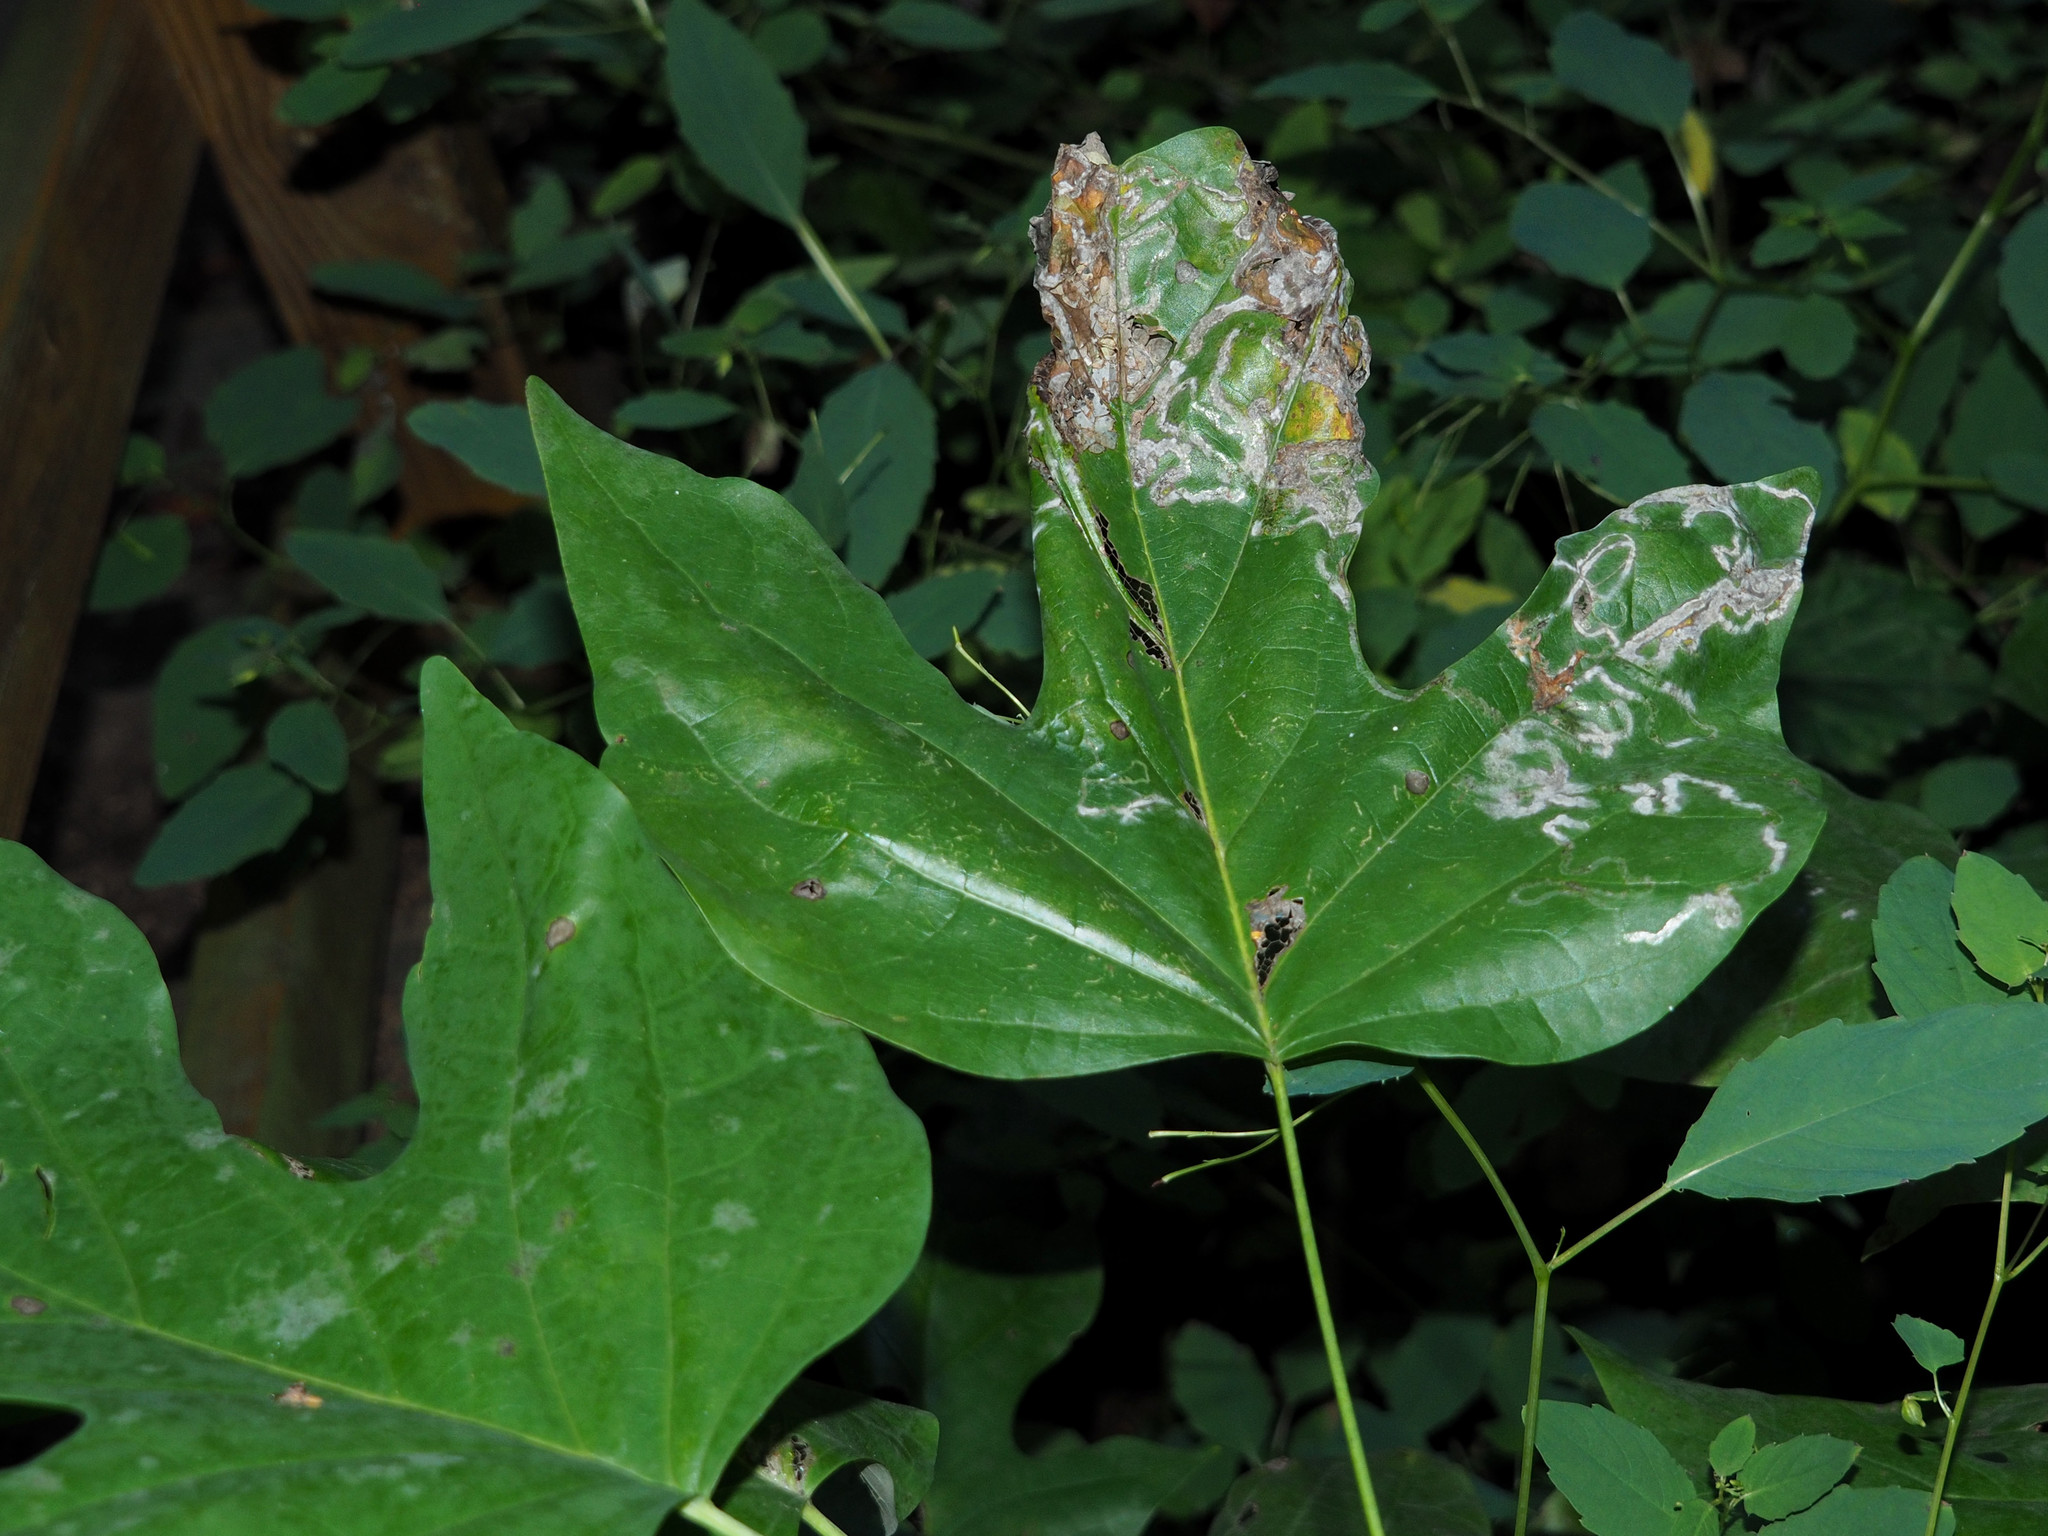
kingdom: Animalia
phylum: Arthropoda
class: Insecta
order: Lepidoptera
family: Gracillariidae
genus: Phyllocnistis
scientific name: Phyllocnistis liriodendronella
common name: Tulip tree leaf miner
